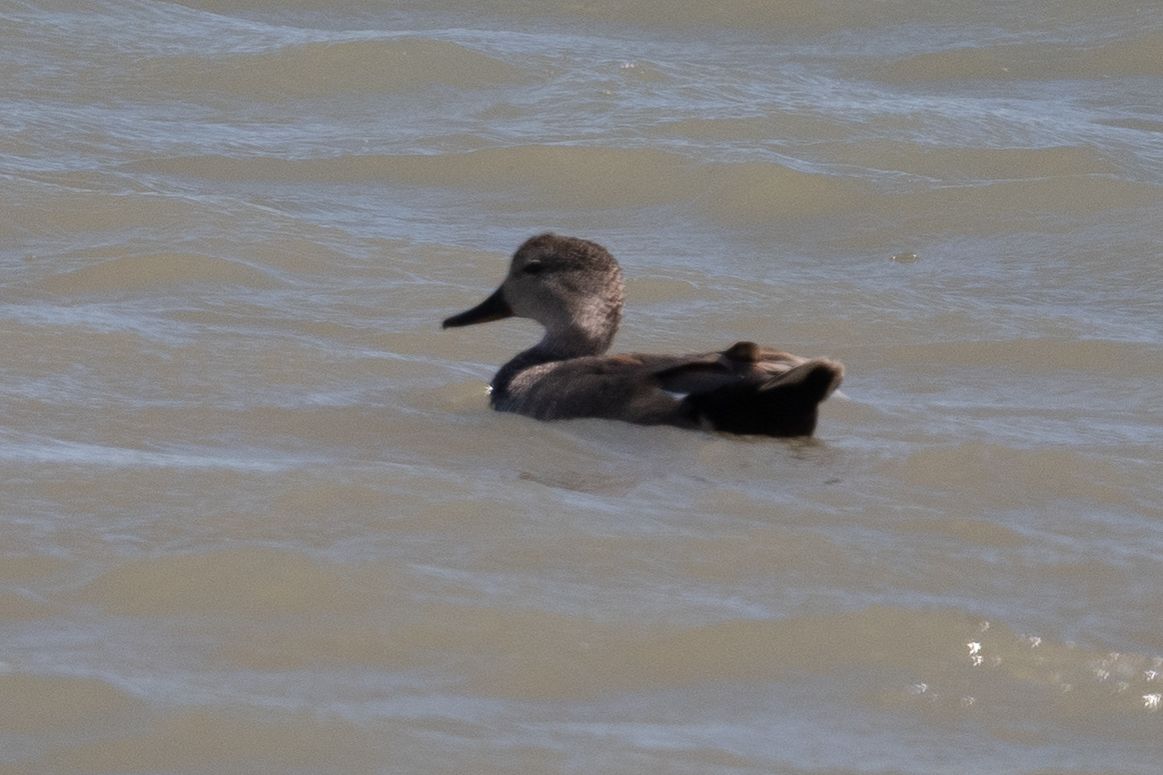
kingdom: Animalia
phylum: Chordata
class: Aves
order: Anseriformes
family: Anatidae
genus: Mareca
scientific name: Mareca strepera
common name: Gadwall
